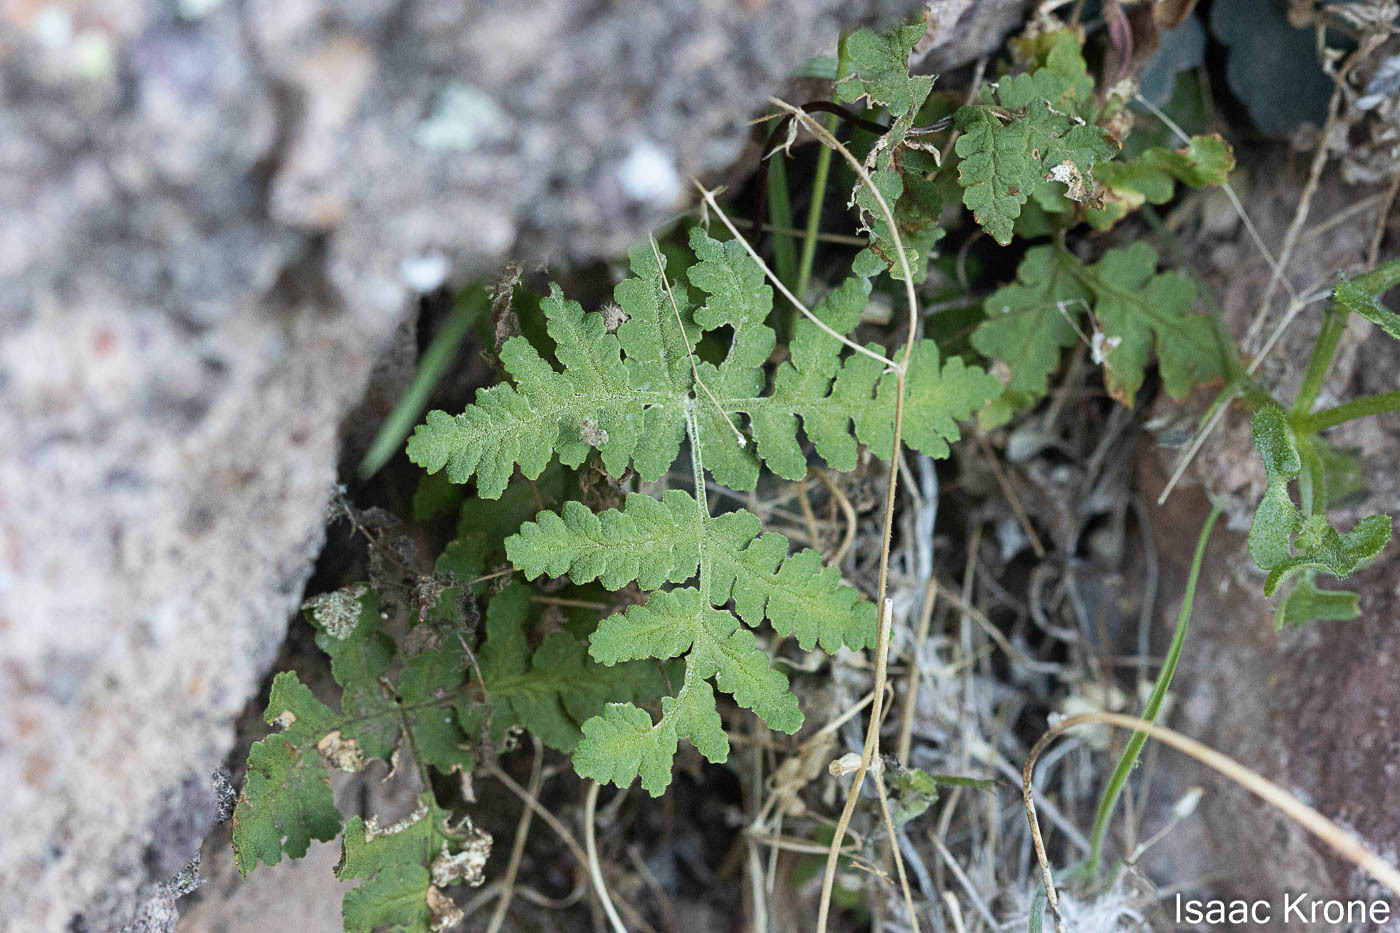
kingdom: Plantae
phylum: Tracheophyta
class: Polypodiopsida
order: Polypodiales
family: Pteridaceae
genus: Pentagramma
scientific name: Pentagramma maxonii
